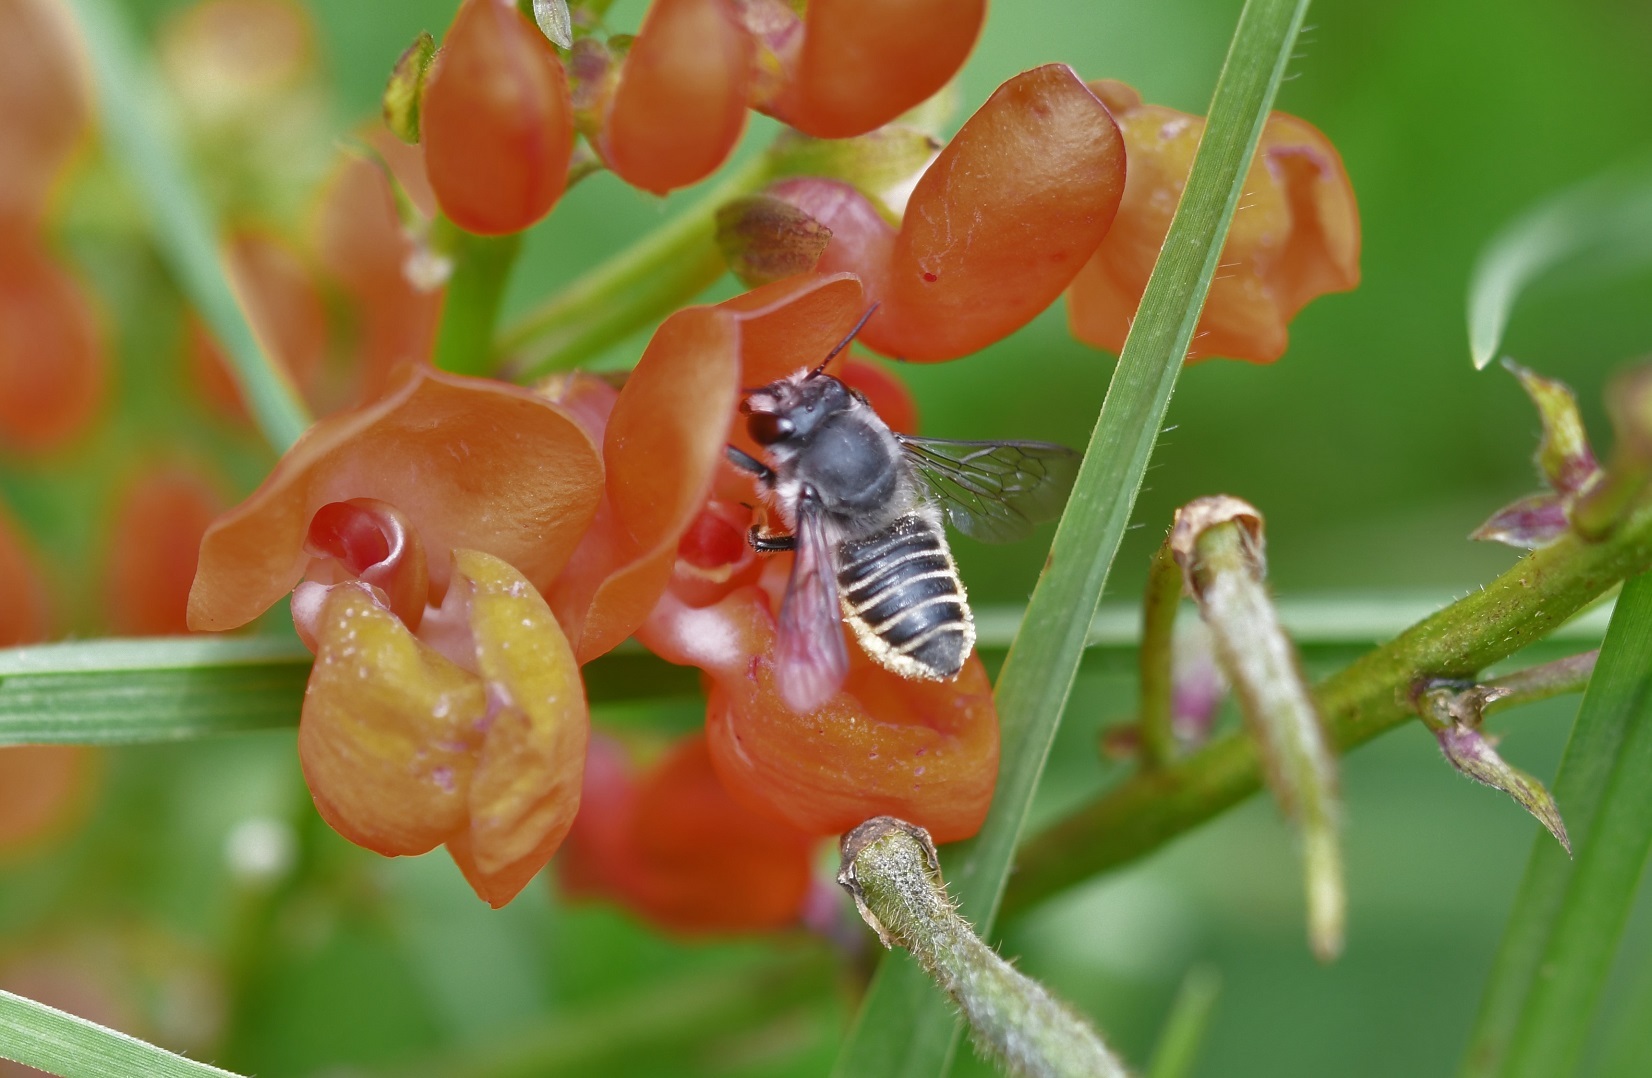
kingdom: Animalia
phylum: Arthropoda
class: Insecta
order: Hymenoptera
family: Megachilidae
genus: Megachile
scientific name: Megachile zapoteca
